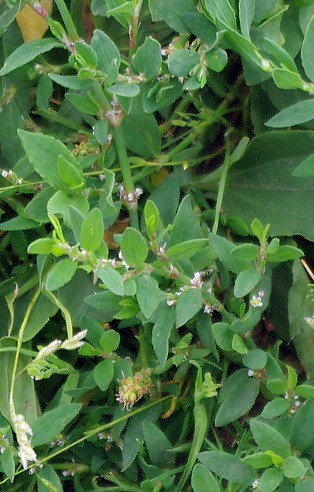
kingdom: Plantae
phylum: Tracheophyta
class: Magnoliopsida
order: Caryophyllales
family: Polygonaceae
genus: Polygonum
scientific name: Polygonum
